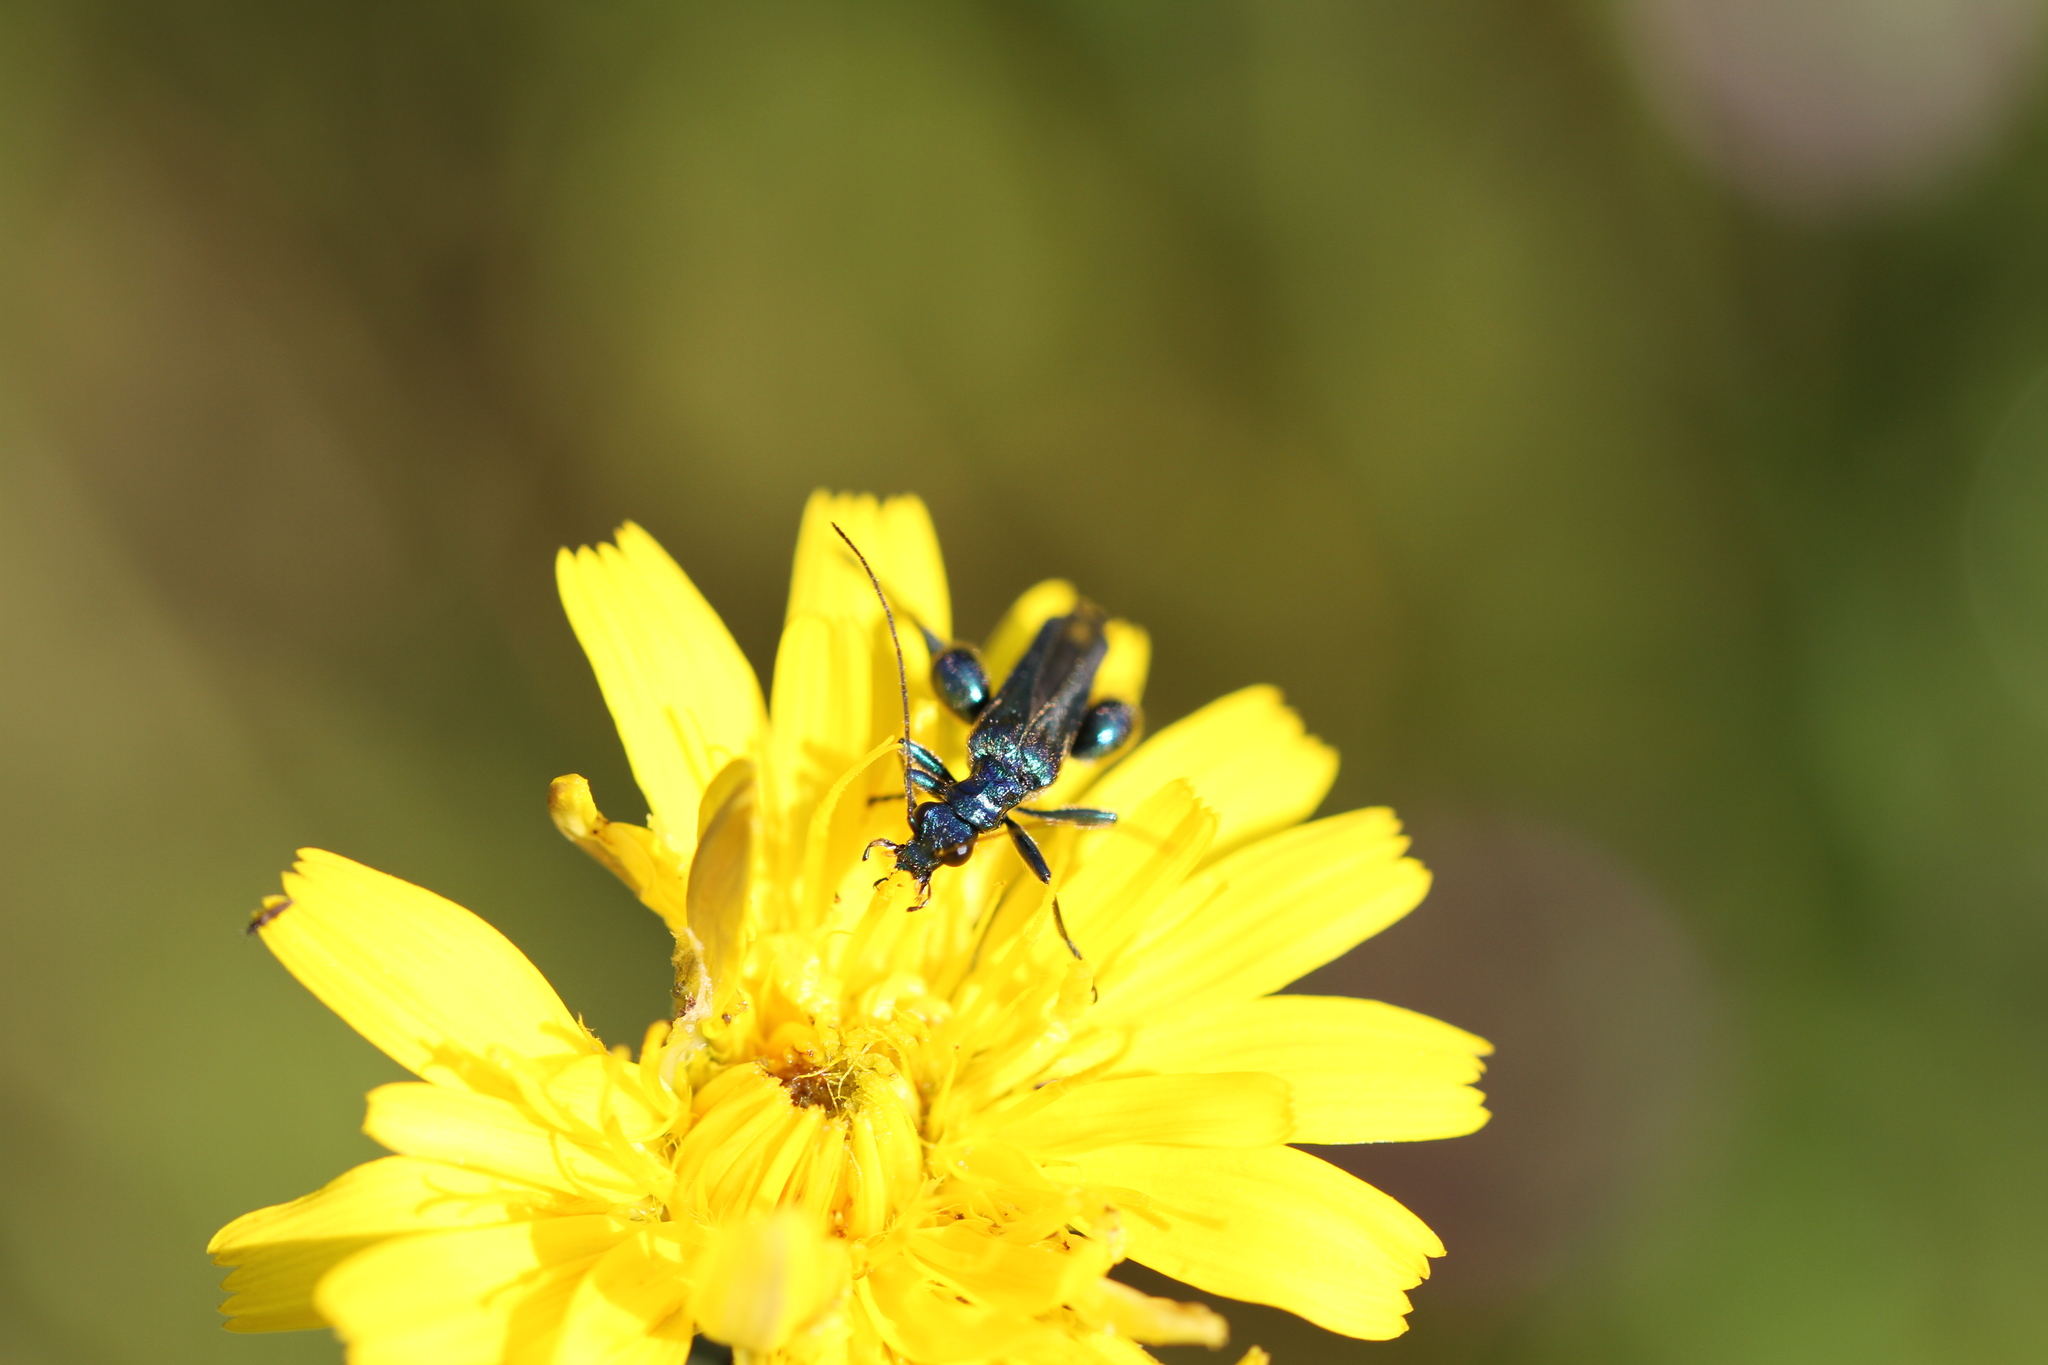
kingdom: Animalia
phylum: Arthropoda
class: Insecta
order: Coleoptera
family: Oedemeridae
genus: Oedemera
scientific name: Oedemera nobilis
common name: Swollen-thighed beetle
